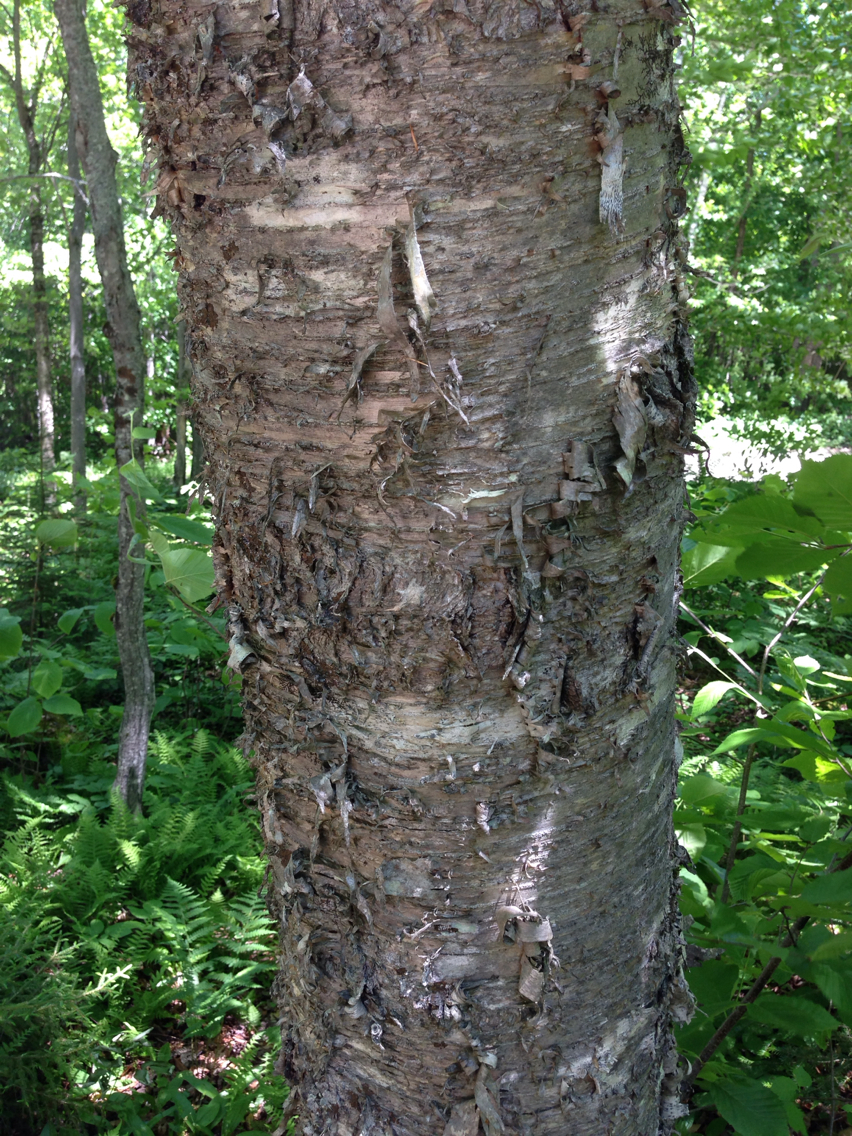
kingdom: Plantae
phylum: Tracheophyta
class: Magnoliopsida
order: Fagales
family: Betulaceae
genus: Betula
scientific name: Betula alleghaniensis
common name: Yellow birch
